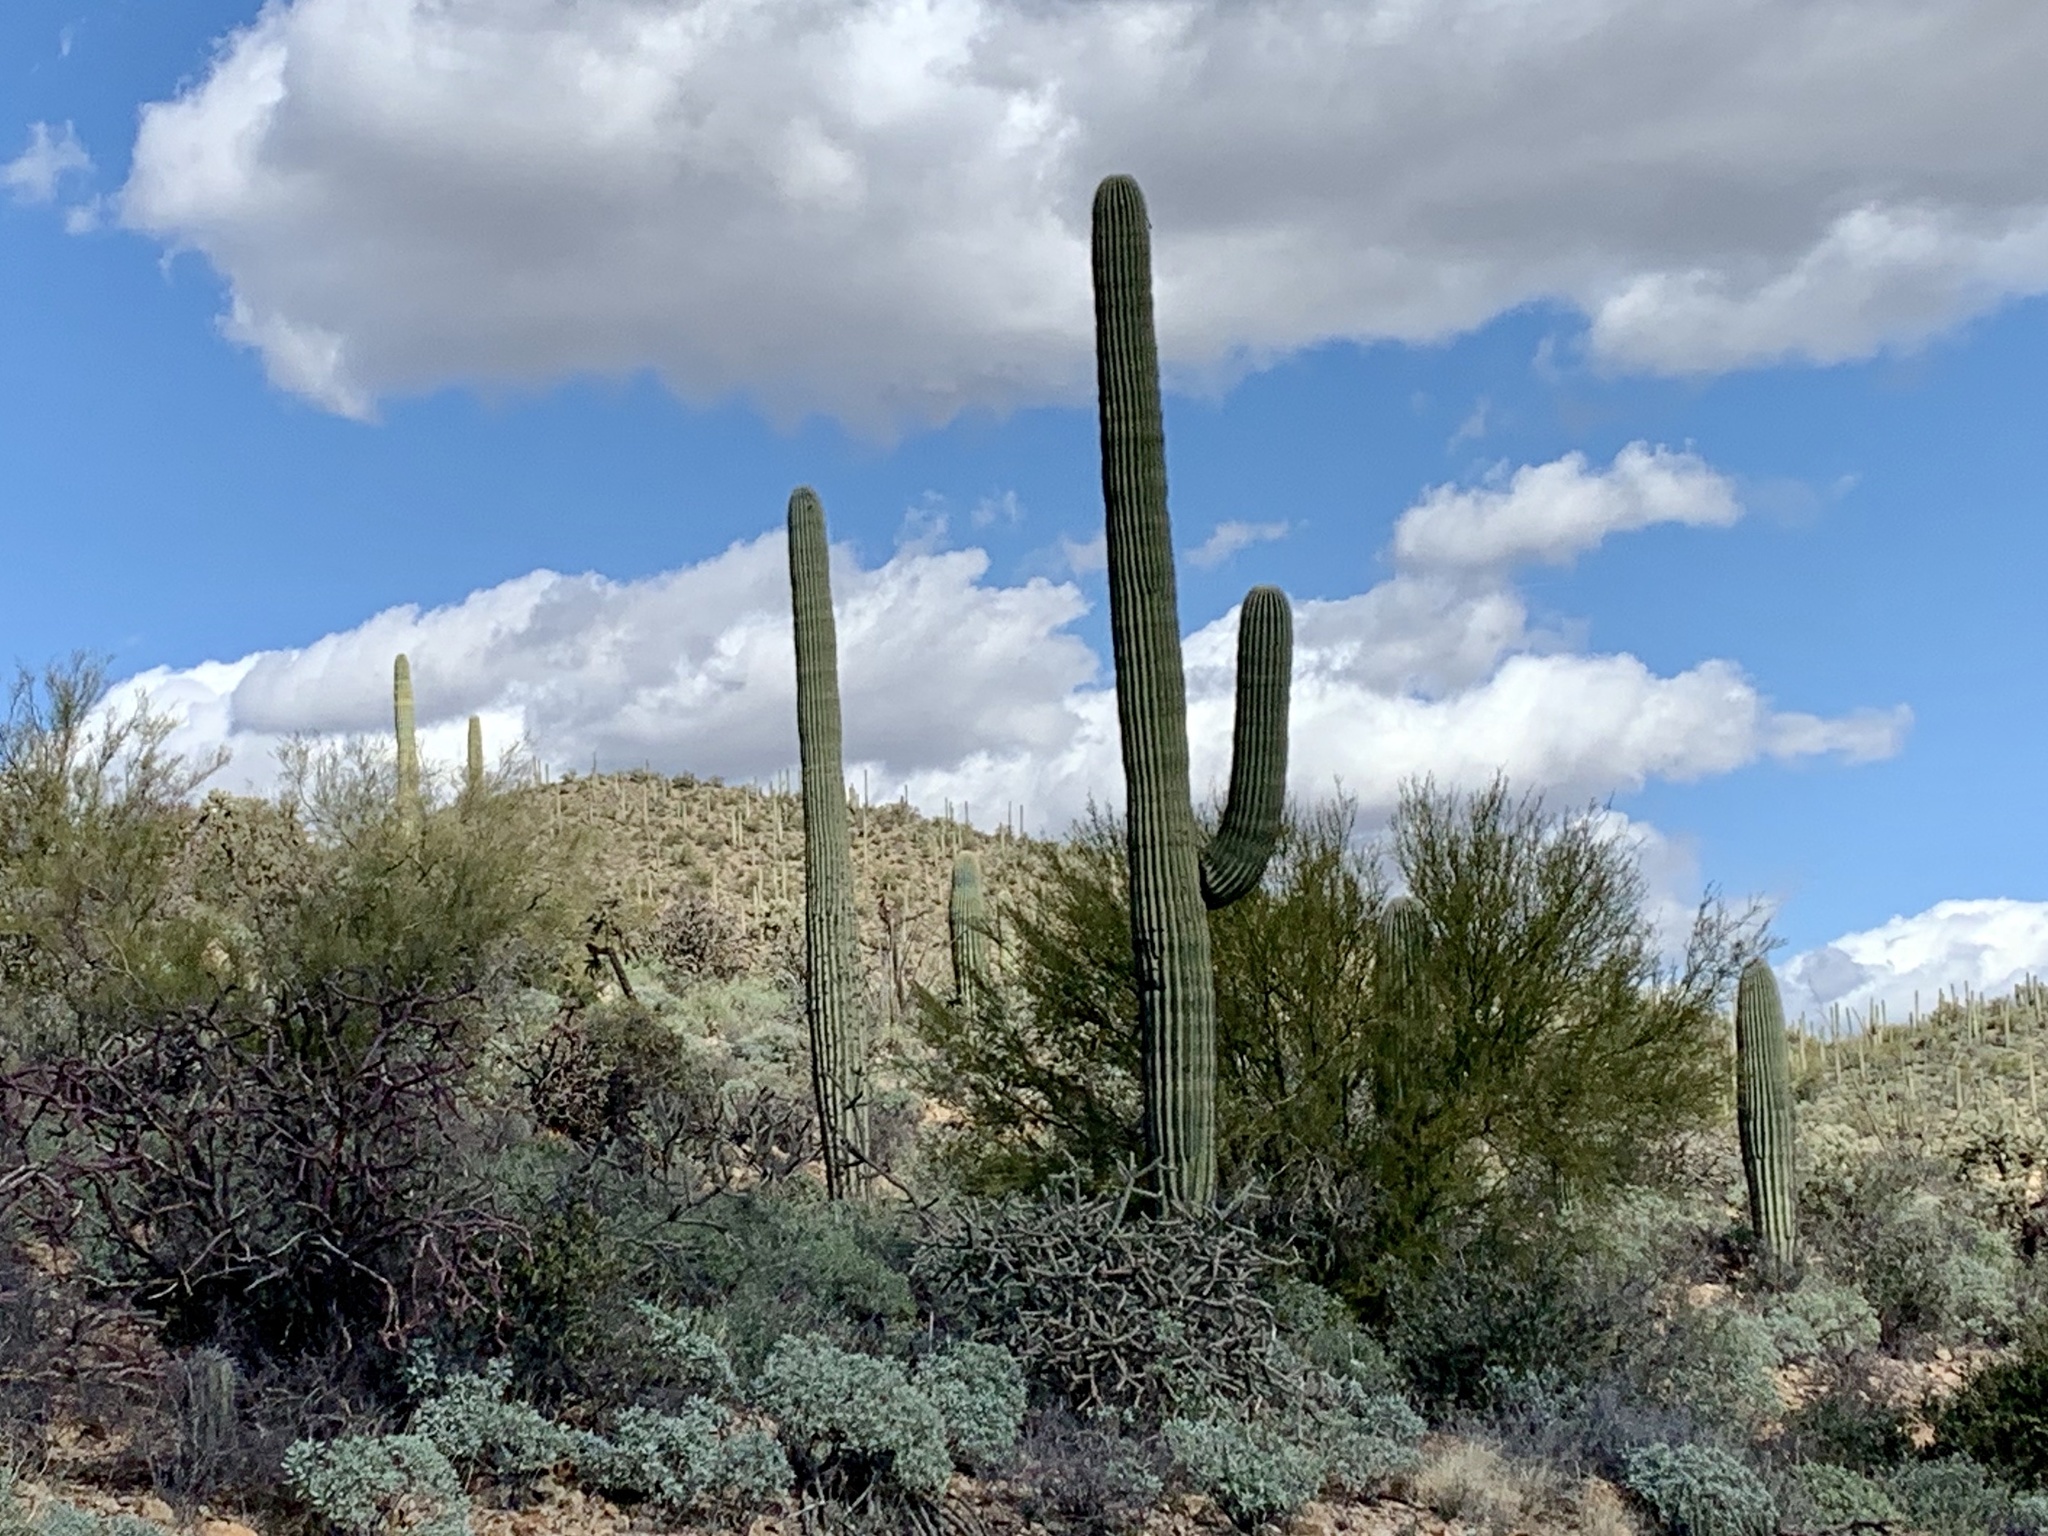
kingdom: Plantae
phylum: Tracheophyta
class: Magnoliopsida
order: Caryophyllales
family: Cactaceae
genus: Carnegiea
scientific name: Carnegiea gigantea
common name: Saguaro
